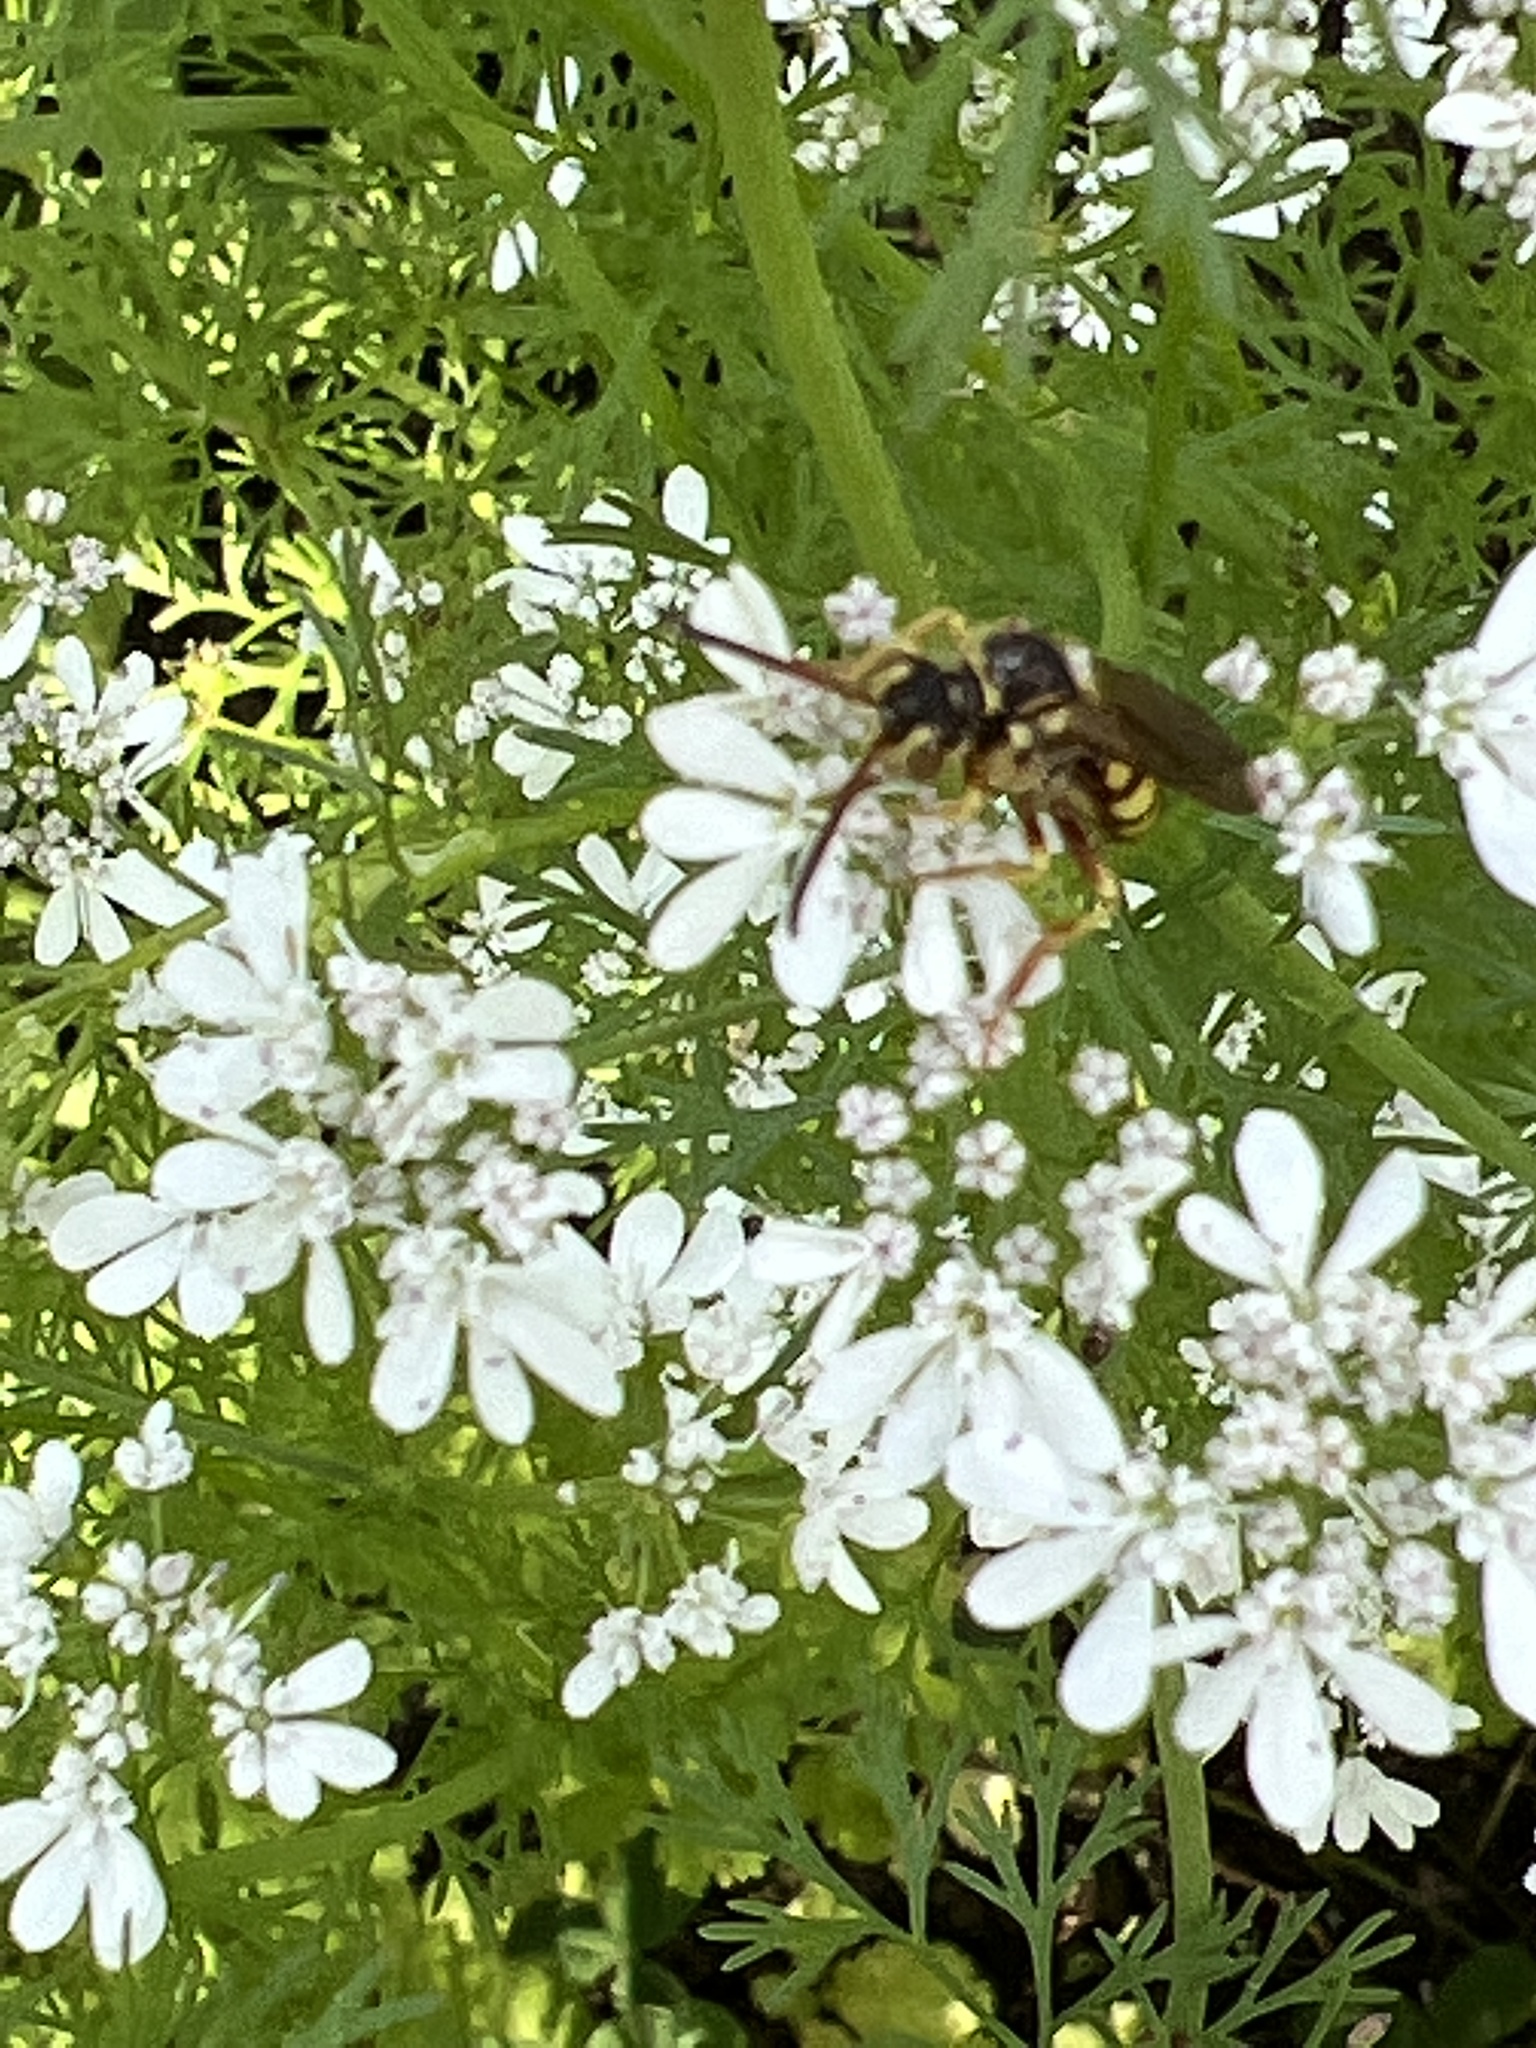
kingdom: Animalia
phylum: Arthropoda
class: Insecta
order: Hymenoptera
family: Apidae
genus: Nomada
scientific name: Nomada luteoloides
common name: Black-and-yellow nomad bee
